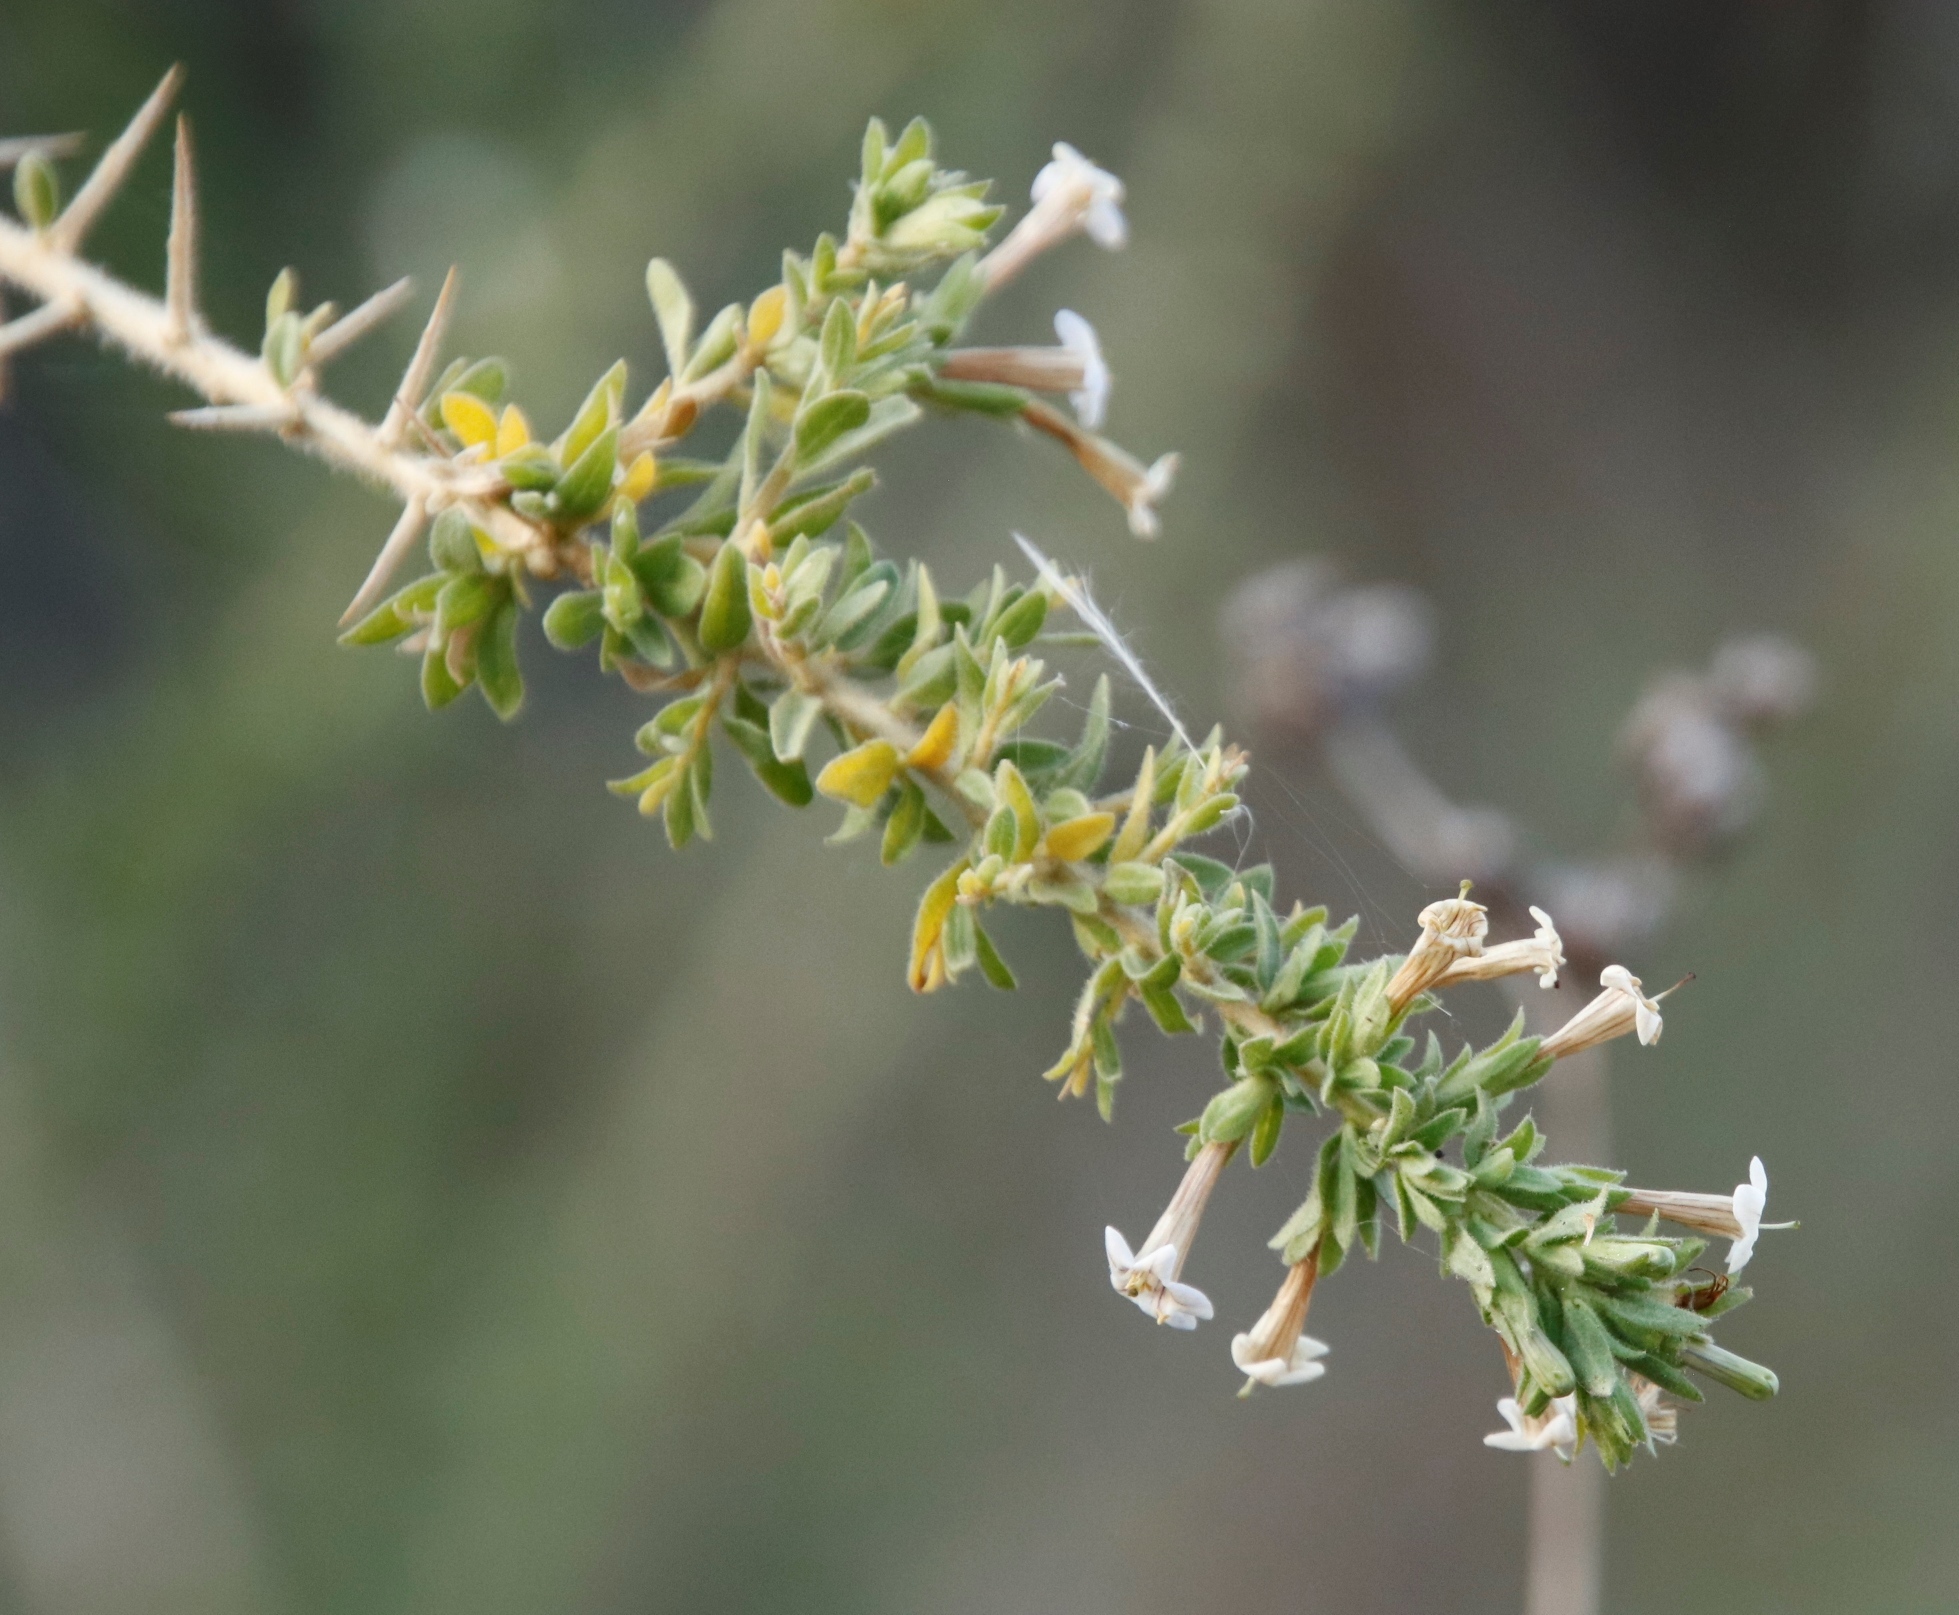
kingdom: Plantae
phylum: Tracheophyta
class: Magnoliopsida
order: Solanales
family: Solanaceae
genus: Lycium
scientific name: Lycium villosum
